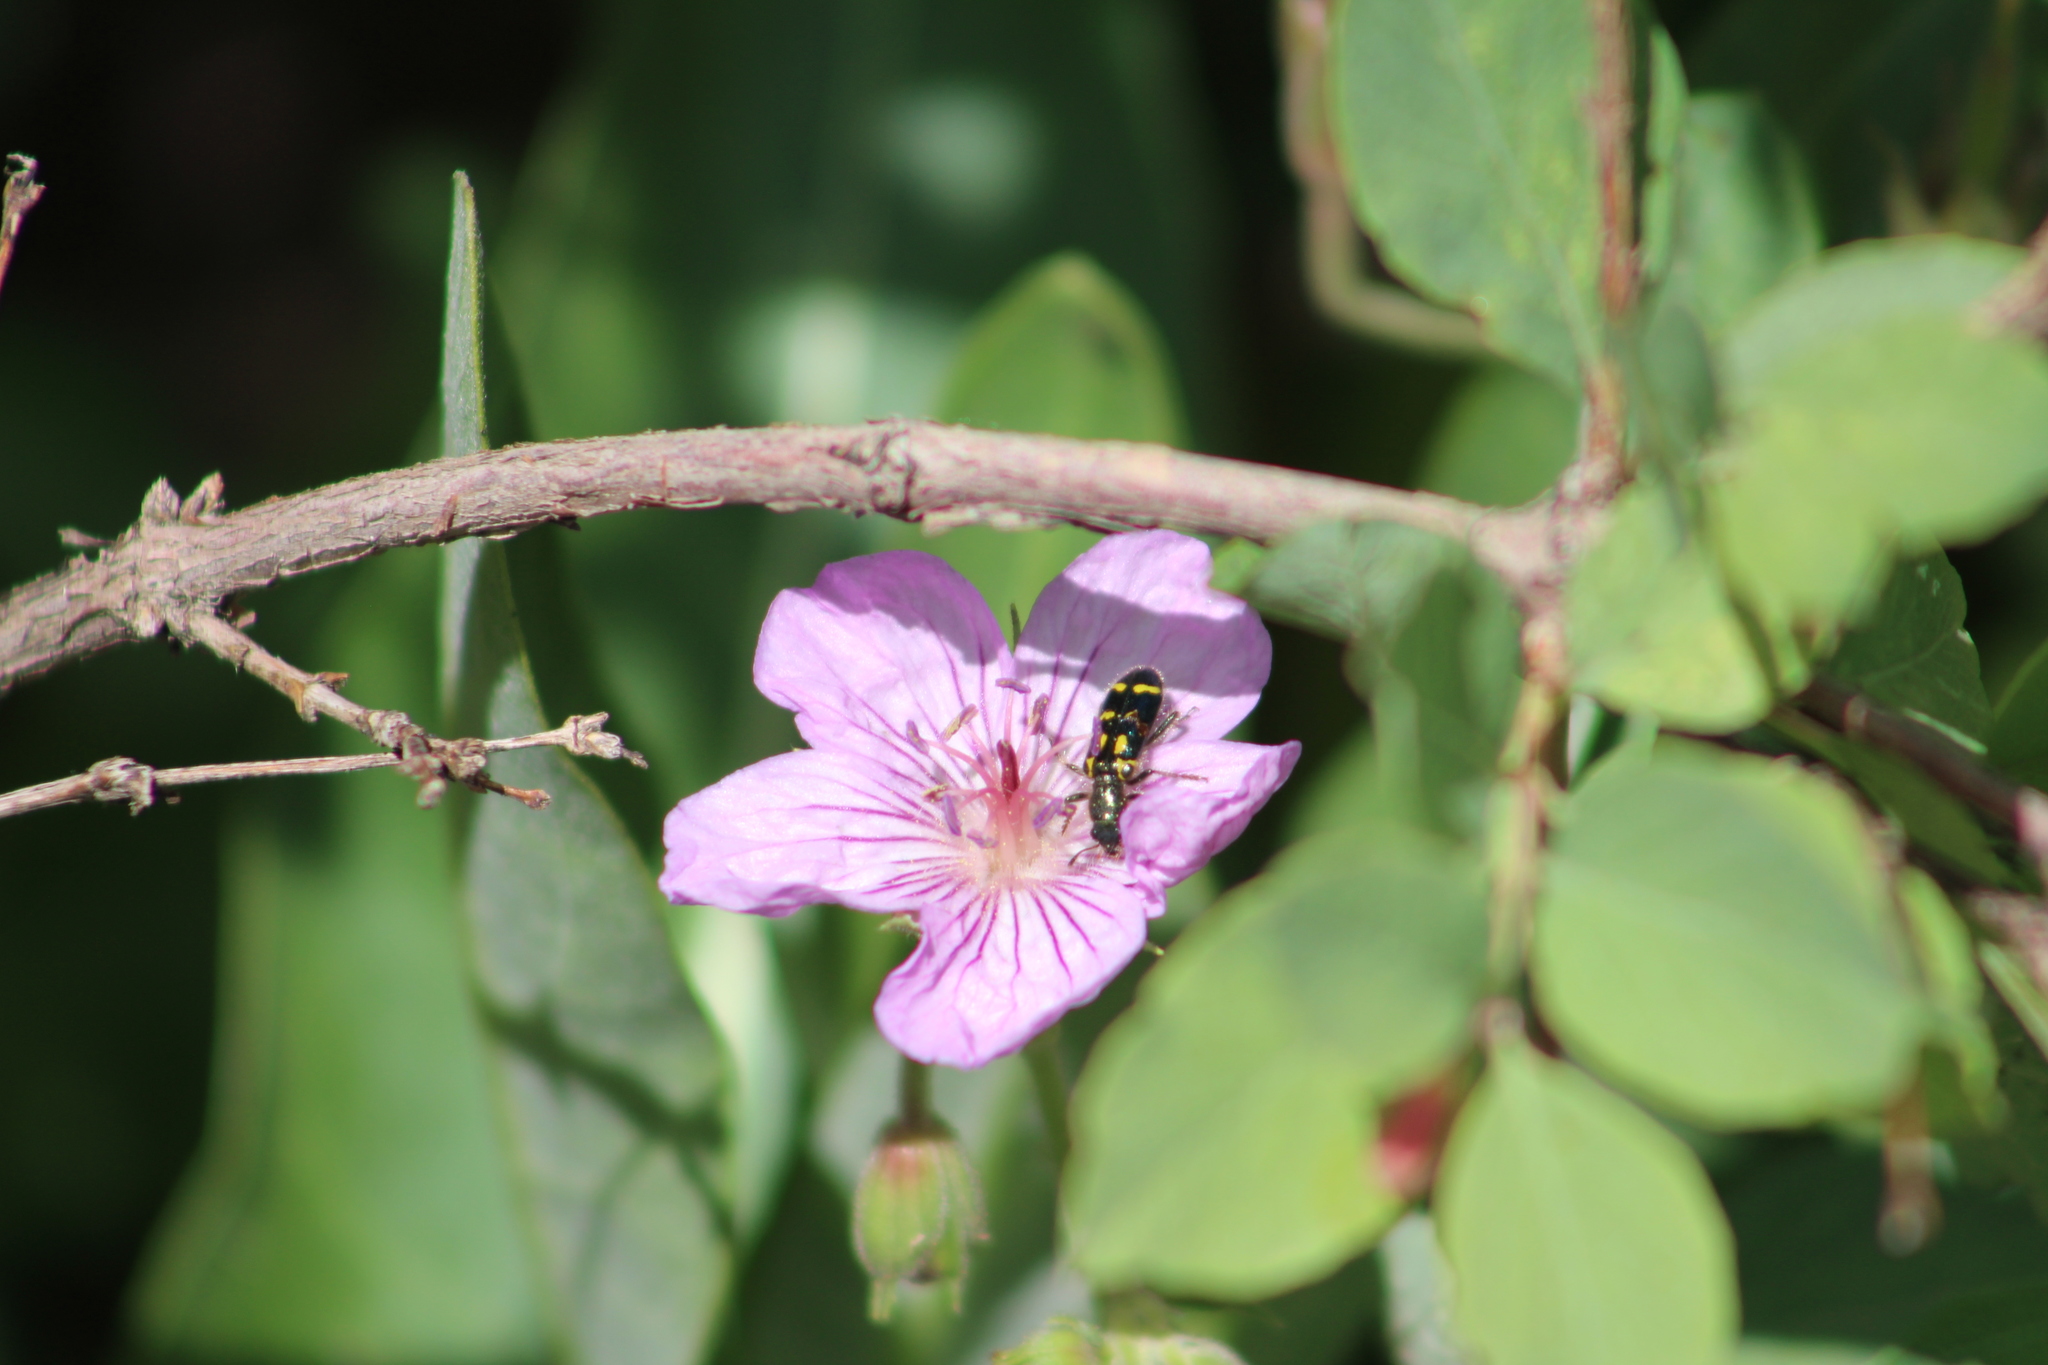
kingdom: Animalia
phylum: Arthropoda
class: Insecta
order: Coleoptera
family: Cleridae
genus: Trichodes
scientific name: Trichodes ornatus
